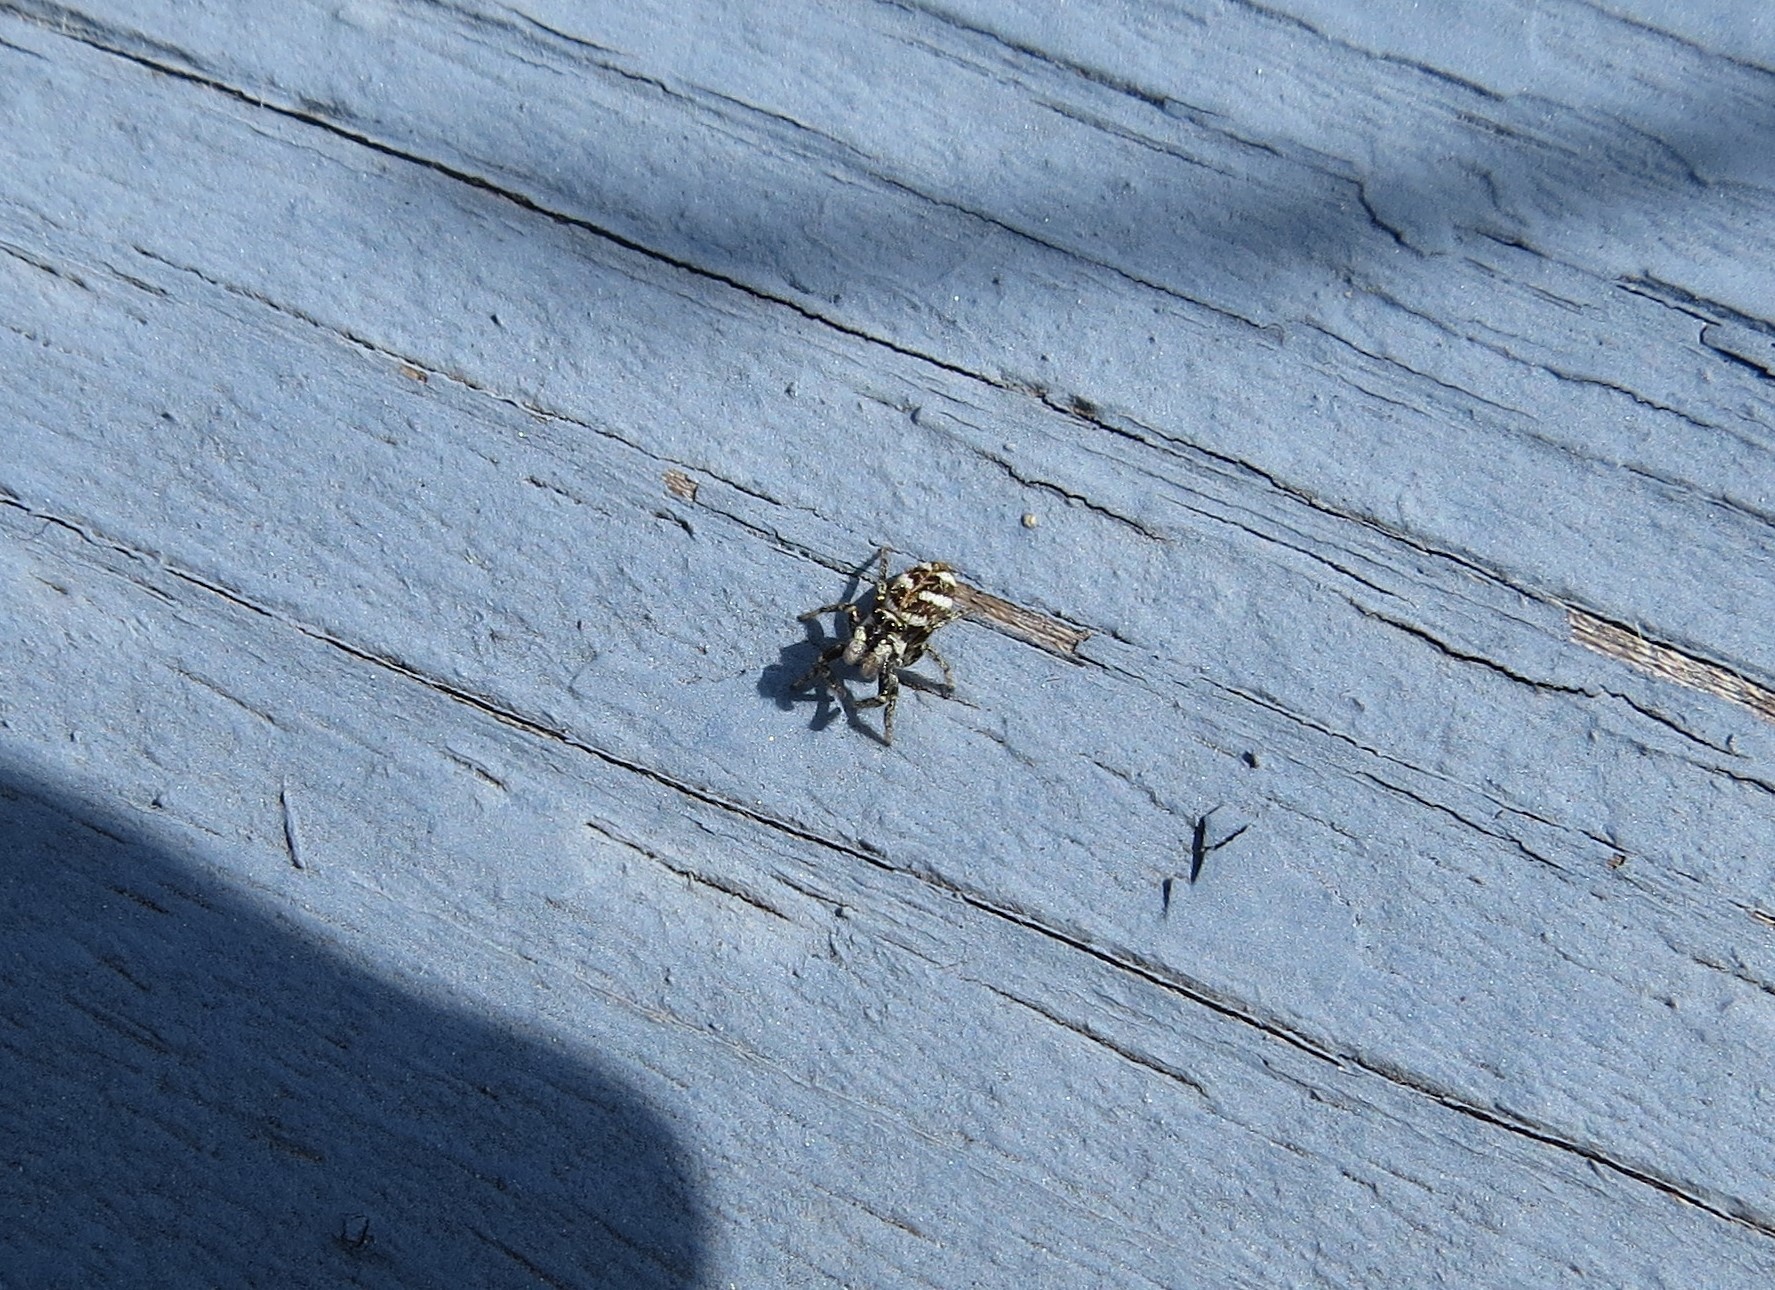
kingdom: Animalia
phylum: Arthropoda
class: Arachnida
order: Araneae
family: Salticidae
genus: Salticus
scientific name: Salticus scenicus
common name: Zebra jumper
